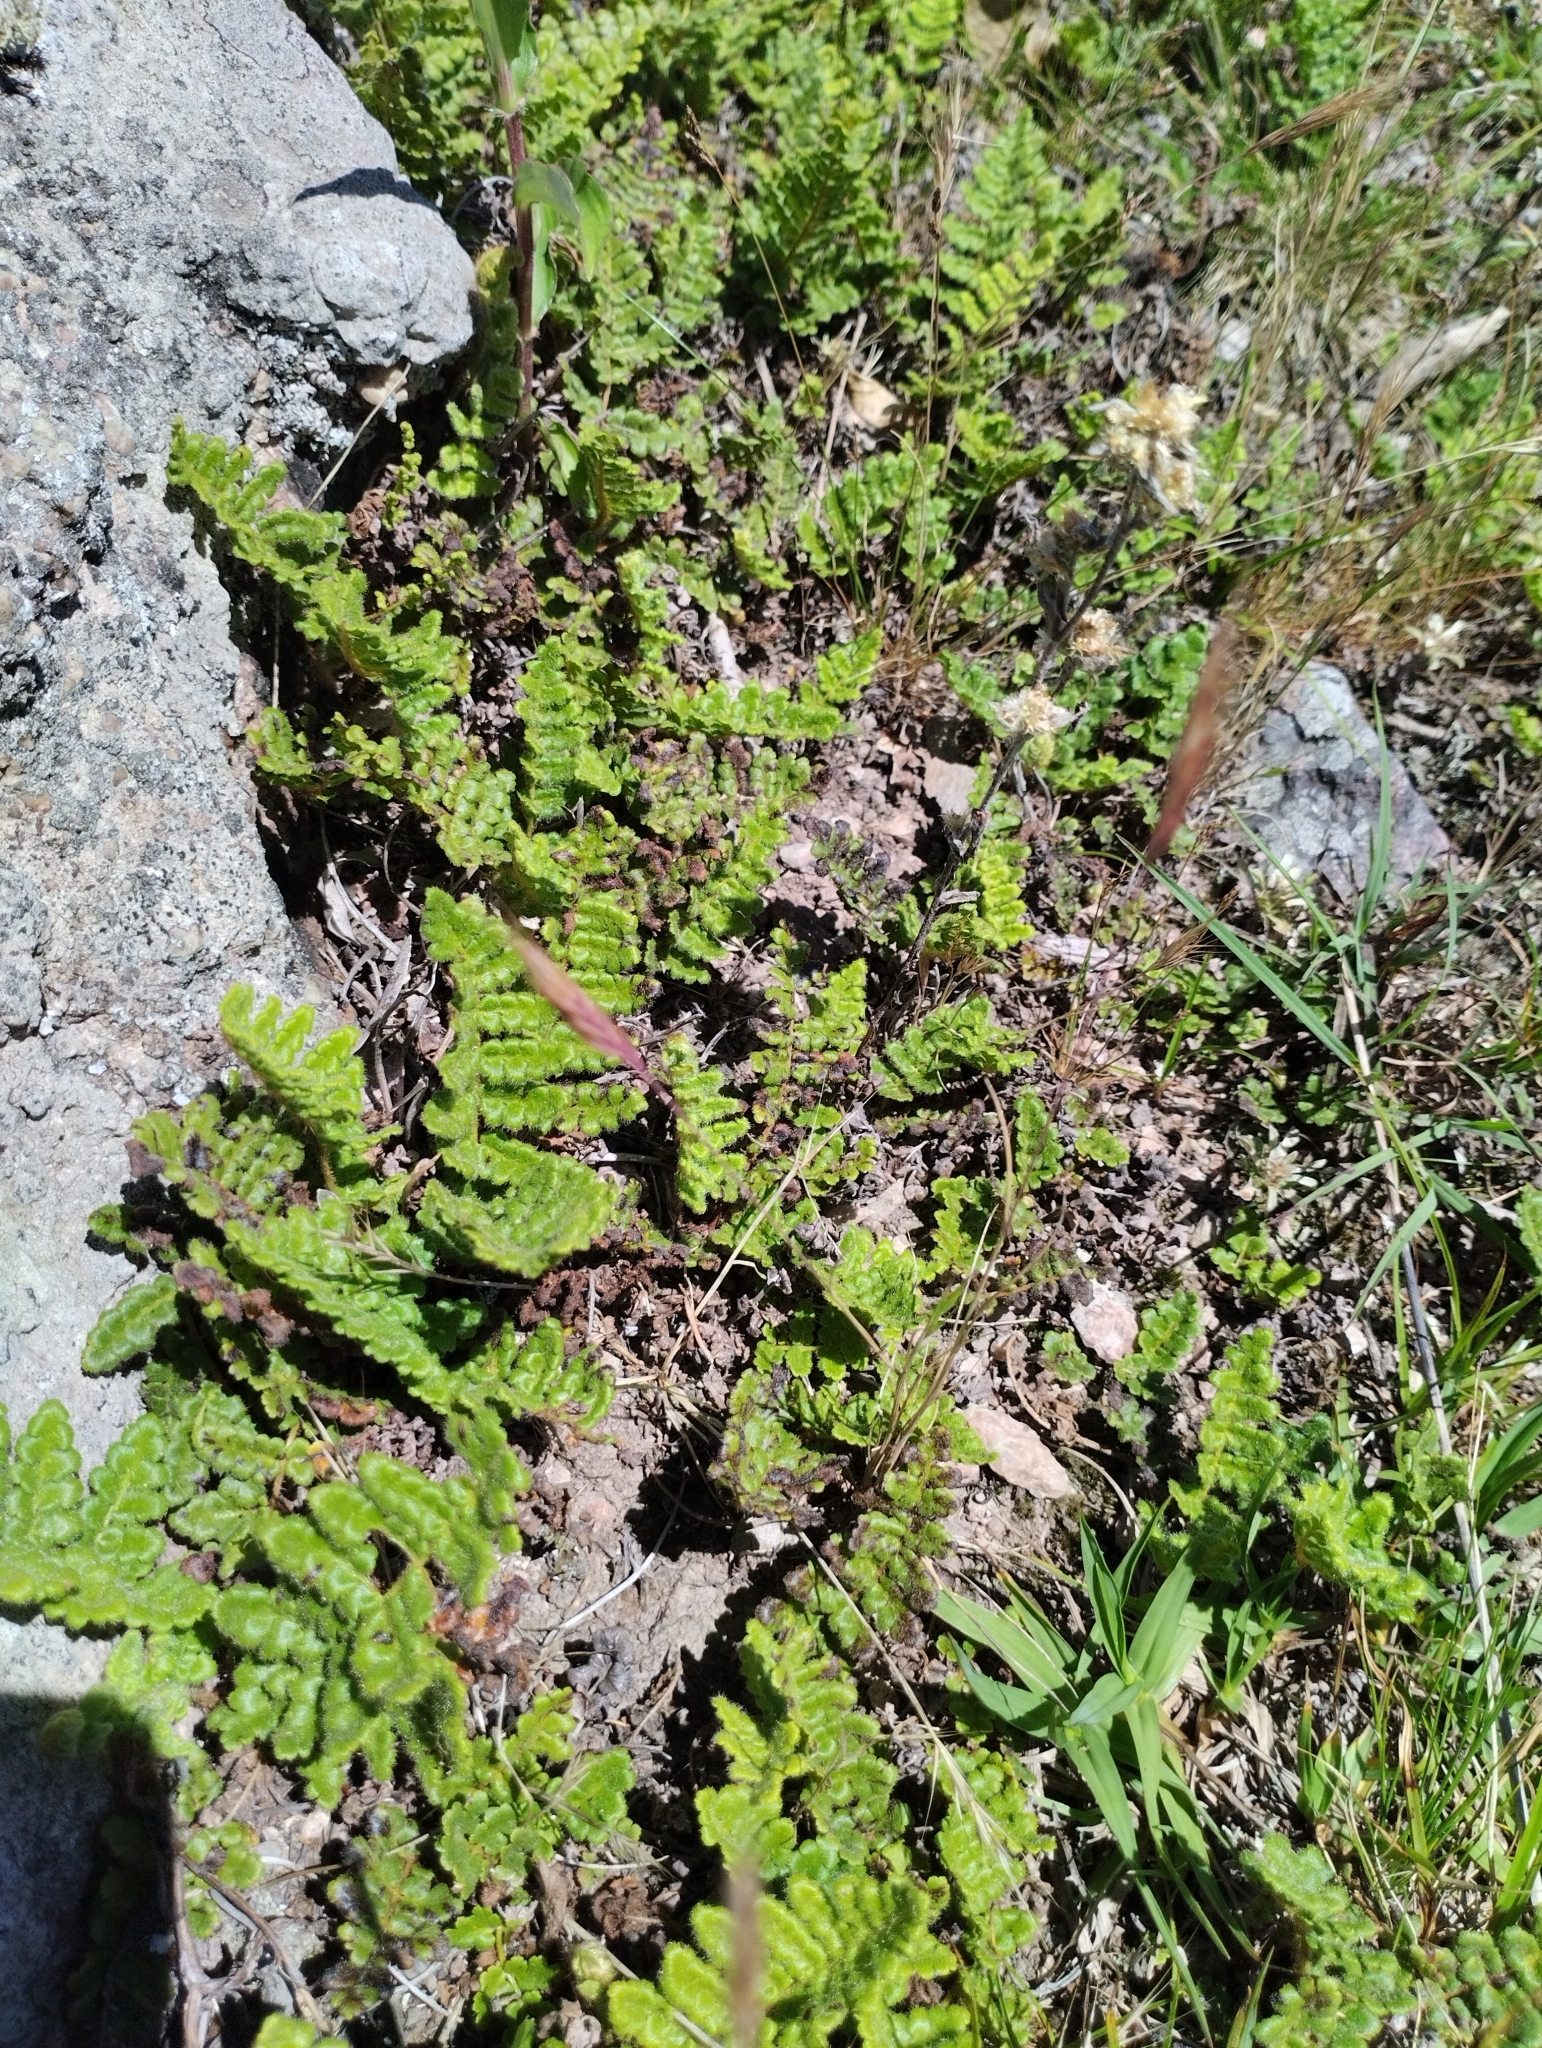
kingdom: Plantae
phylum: Tracheophyta
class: Polypodiopsida
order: Schizaeales
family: Anemiaceae
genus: Anemia
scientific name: Anemia tomentosa
